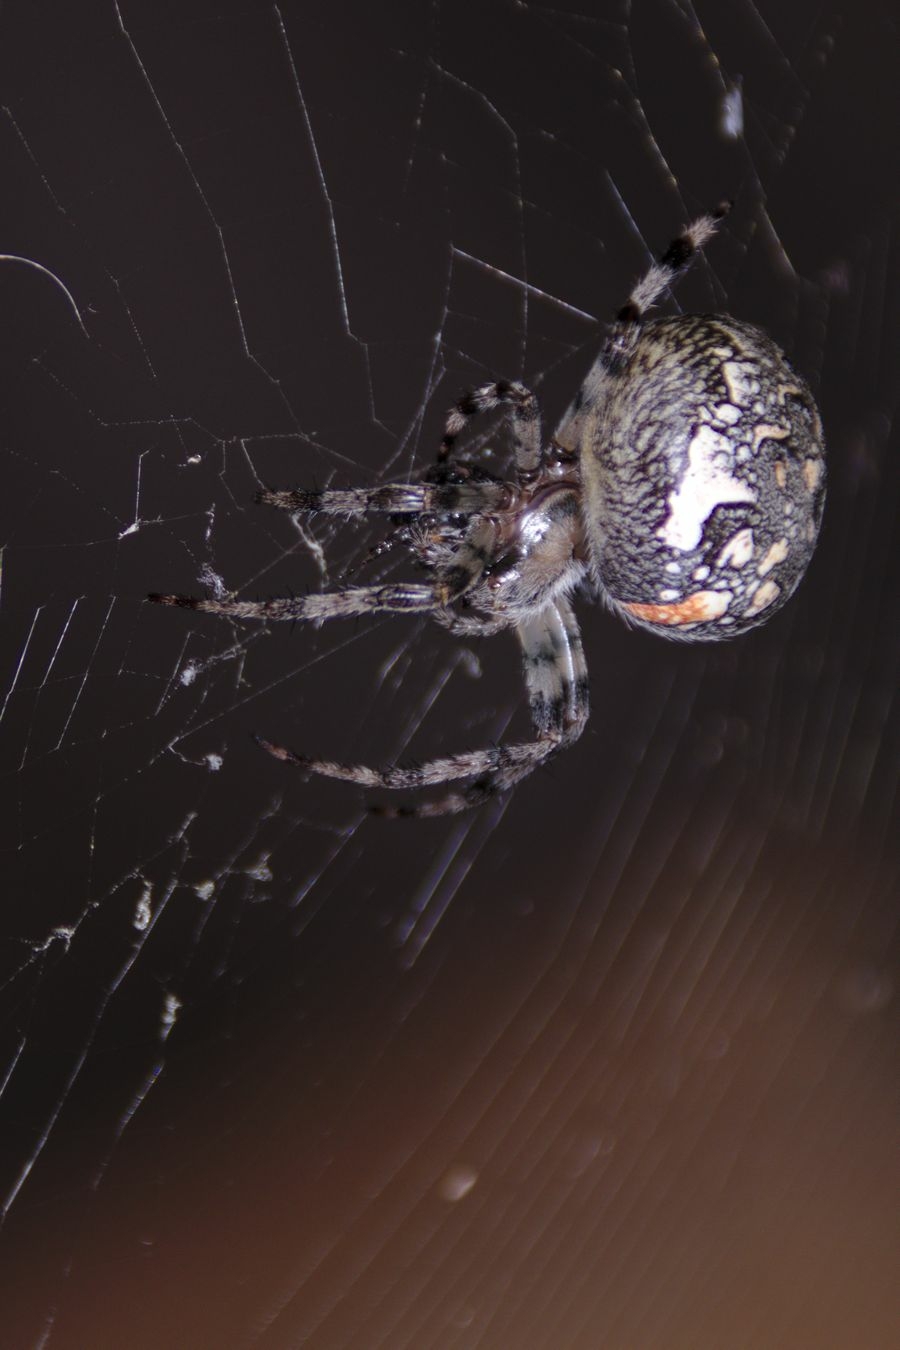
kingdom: Animalia
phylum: Arthropoda
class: Arachnida
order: Araneae
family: Araneidae
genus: Araneus
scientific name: Araneus marmoreus
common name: Marbled orbweaver
